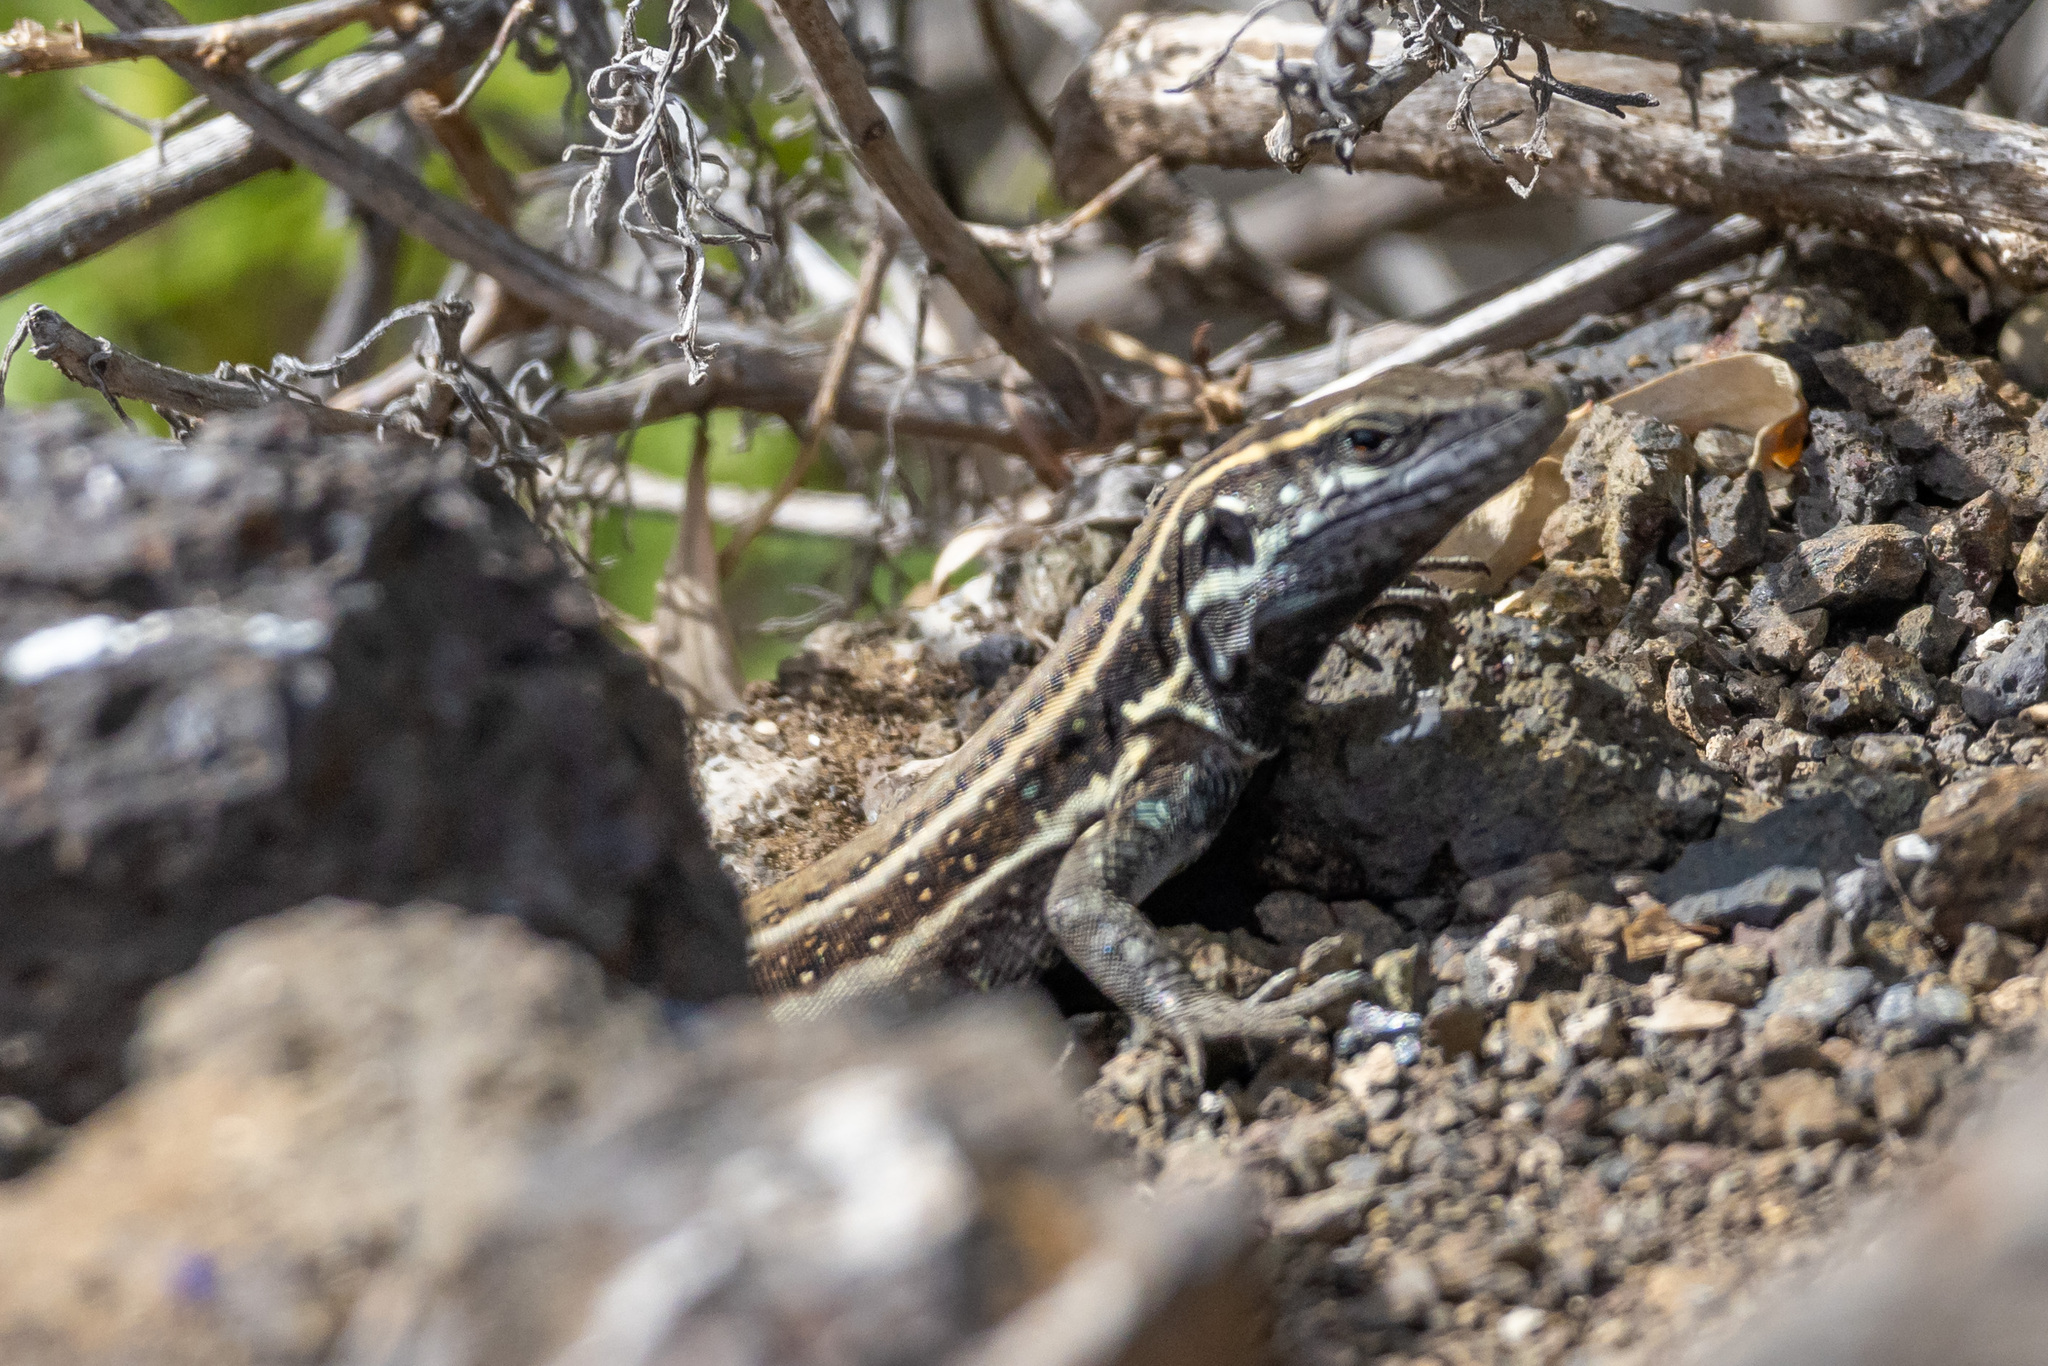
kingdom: Animalia
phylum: Chordata
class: Squamata
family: Lacertidae
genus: Gallotia
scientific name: Gallotia caesaris
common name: Boettger's lizard
